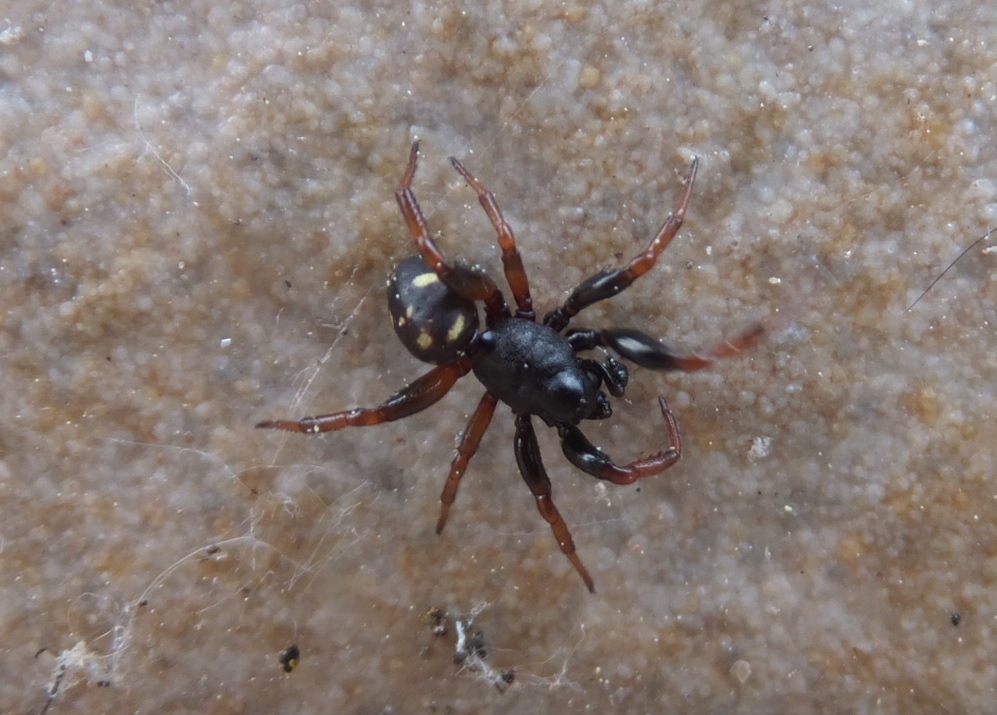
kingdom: Animalia
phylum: Arthropoda
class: Arachnida
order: Araneae
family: Theridiidae
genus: Asagena
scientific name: Asagena italica
